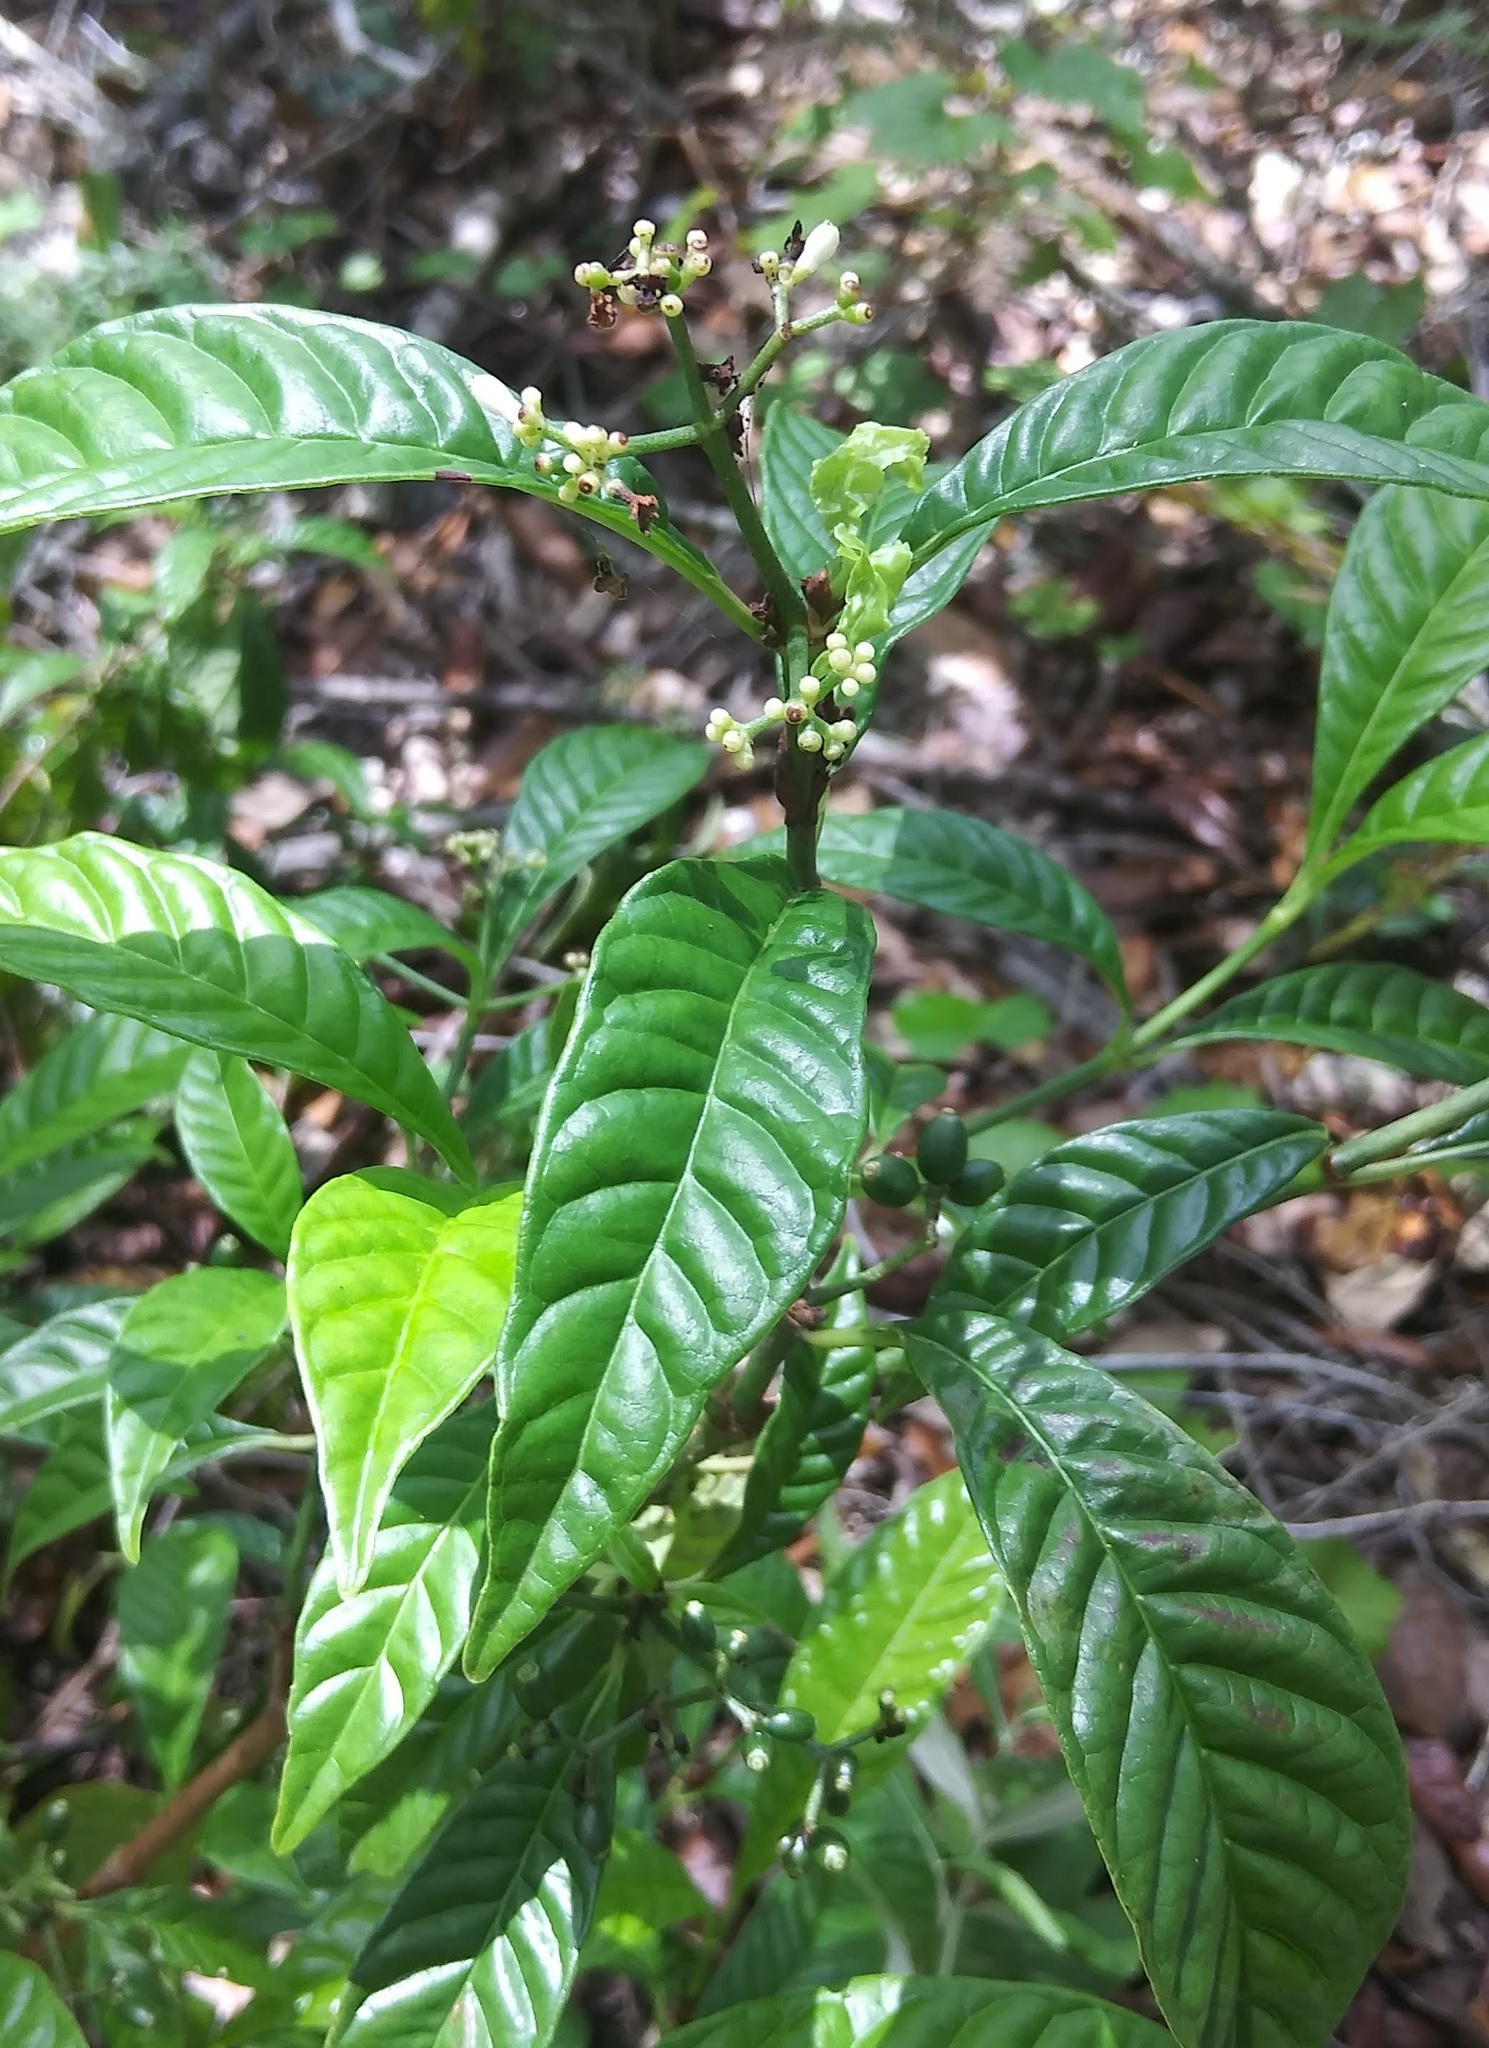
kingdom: Plantae
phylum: Tracheophyta
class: Magnoliopsida
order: Gentianales
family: Rubiaceae
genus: Psychotria
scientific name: Psychotria nervosa
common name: Bastard cankerberry
